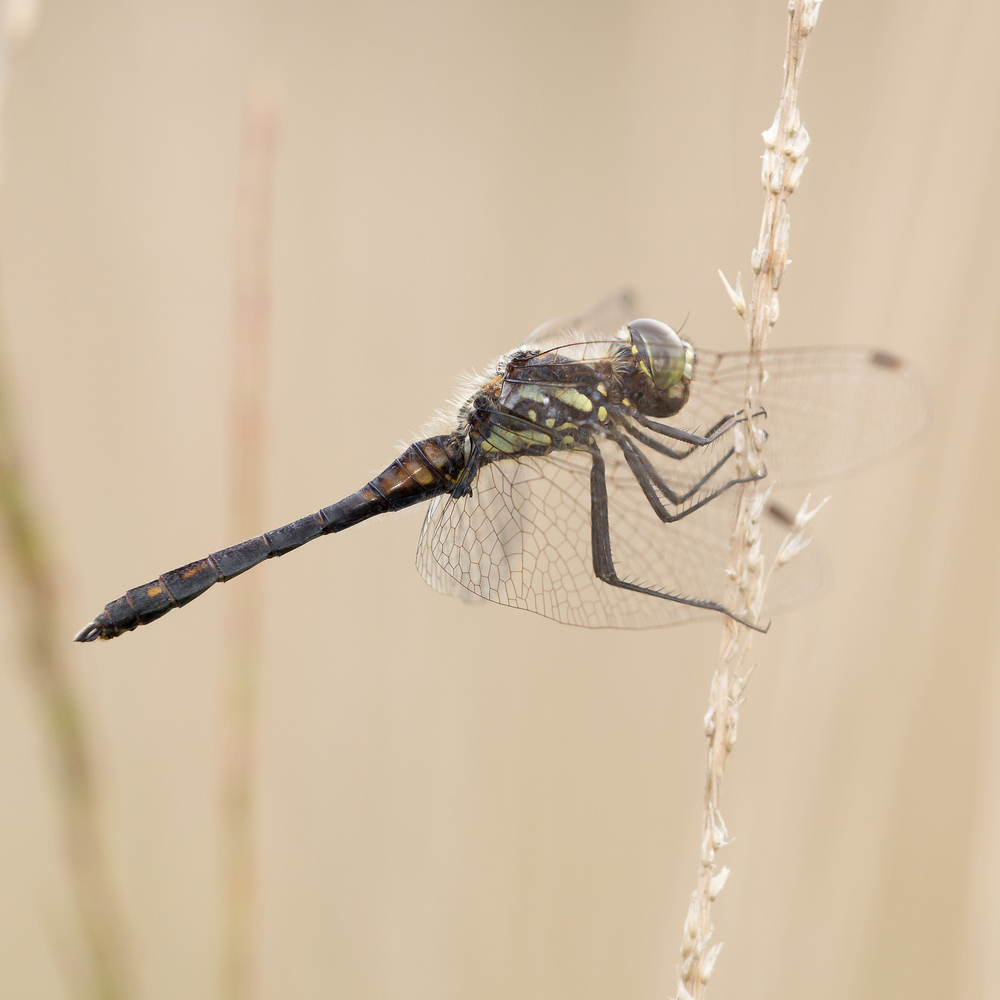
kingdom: Animalia
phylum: Arthropoda
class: Insecta
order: Odonata
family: Libellulidae
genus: Sympetrum
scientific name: Sympetrum danae
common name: Black darter
